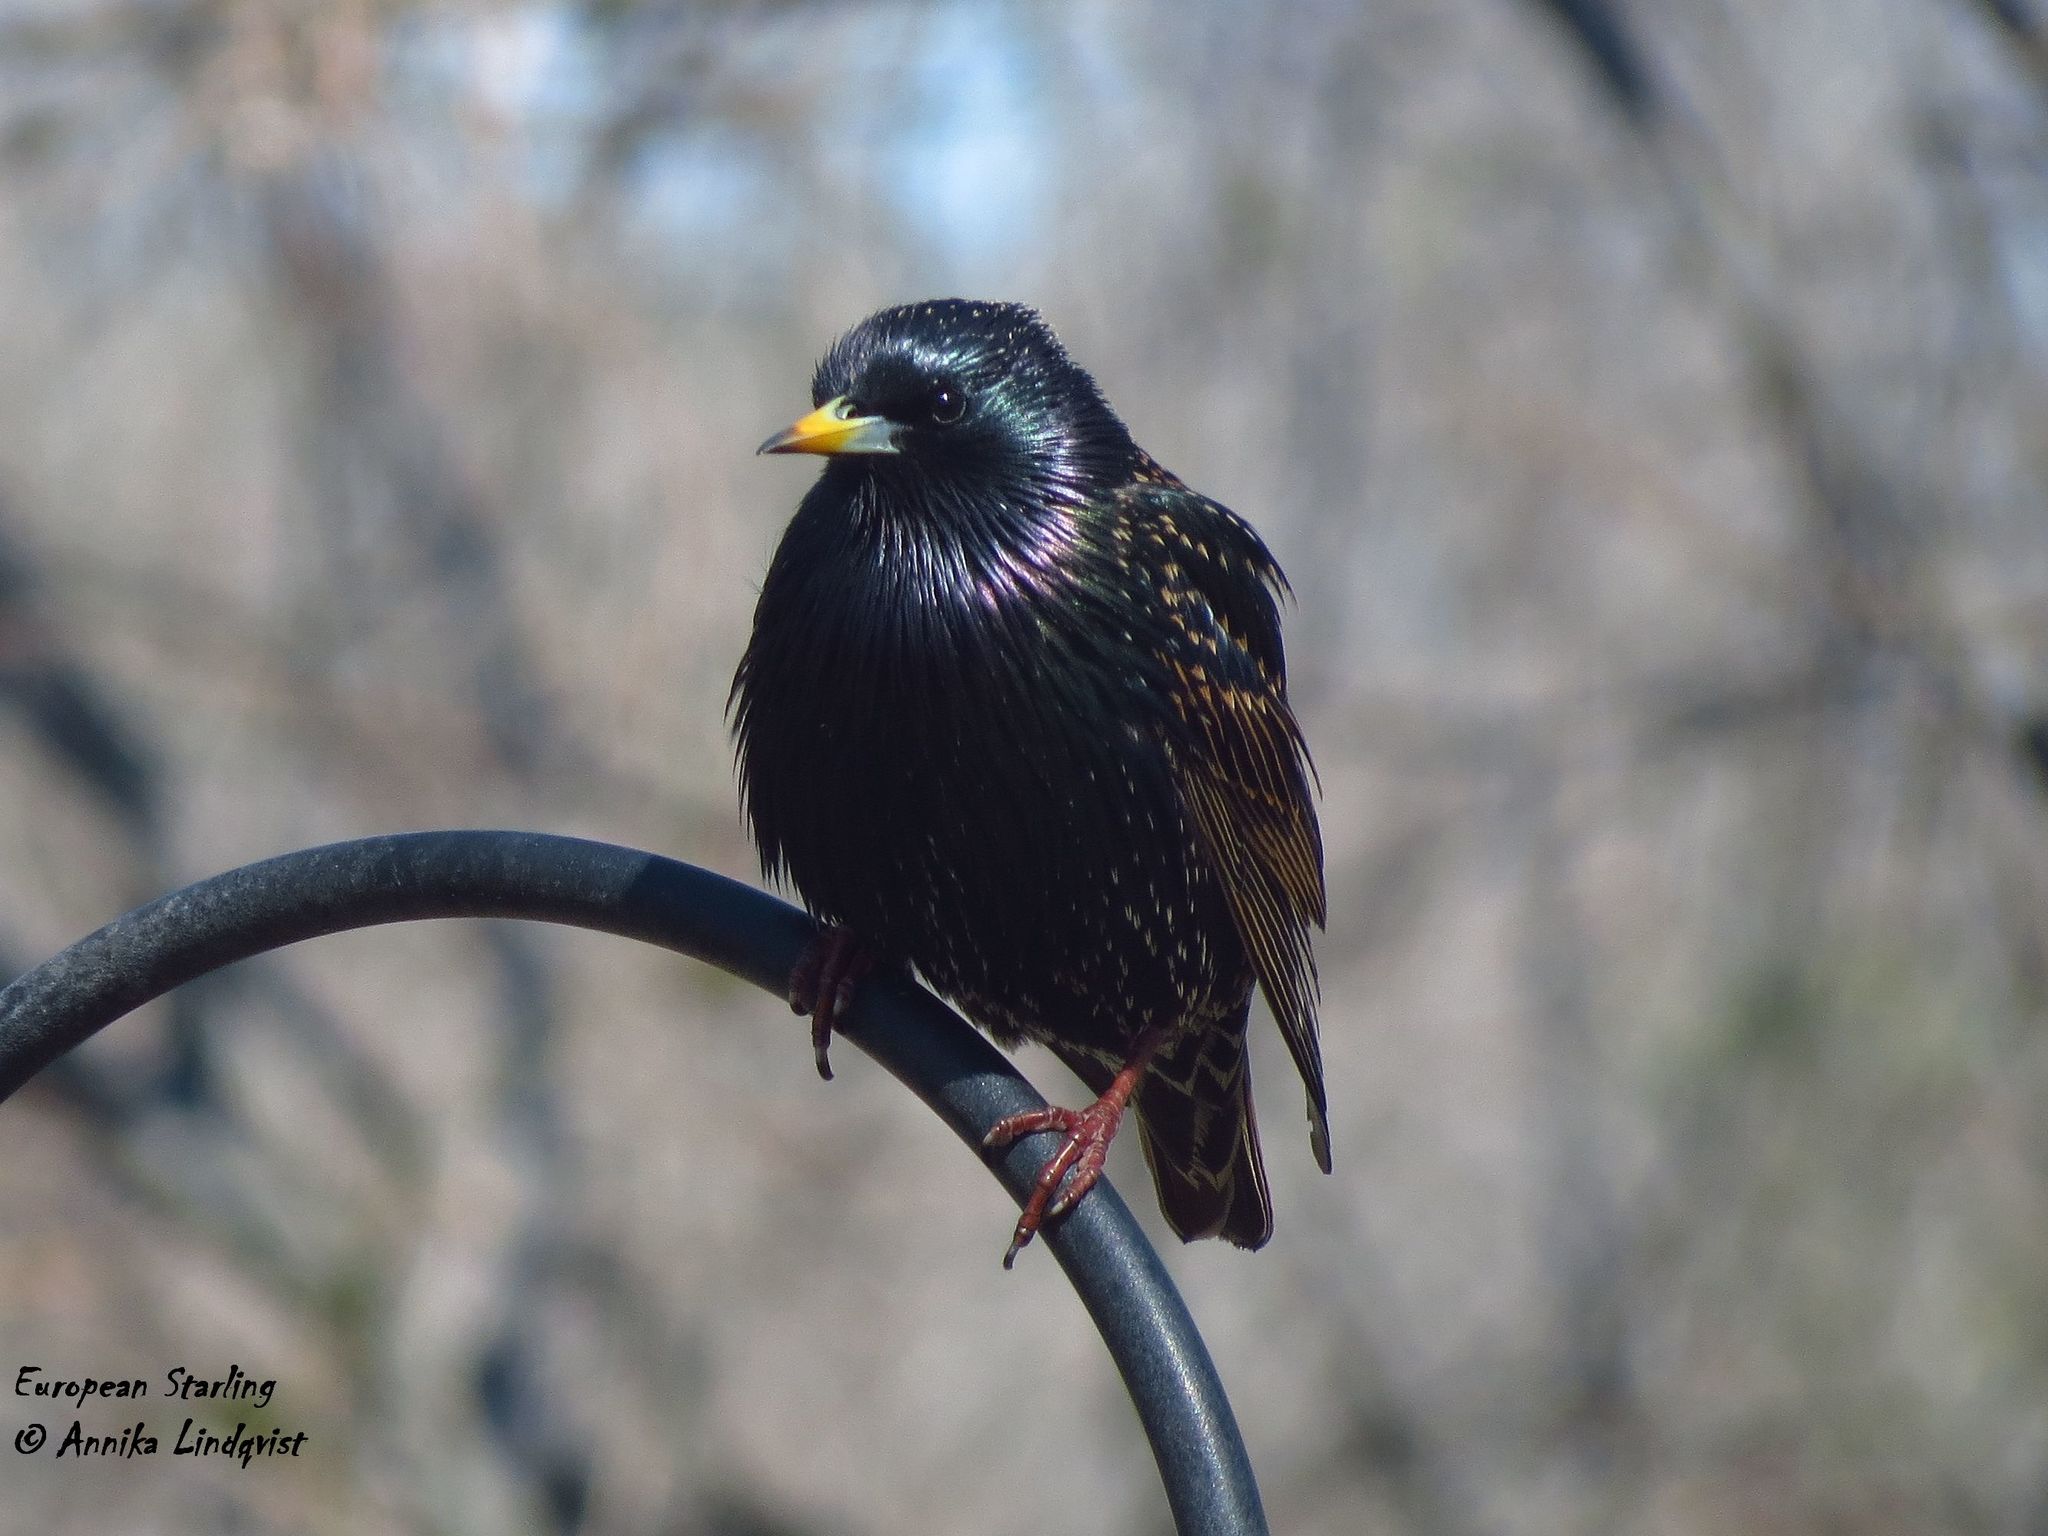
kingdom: Animalia
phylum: Chordata
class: Aves
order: Passeriformes
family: Sturnidae
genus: Sturnus
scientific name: Sturnus vulgaris
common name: Common starling
